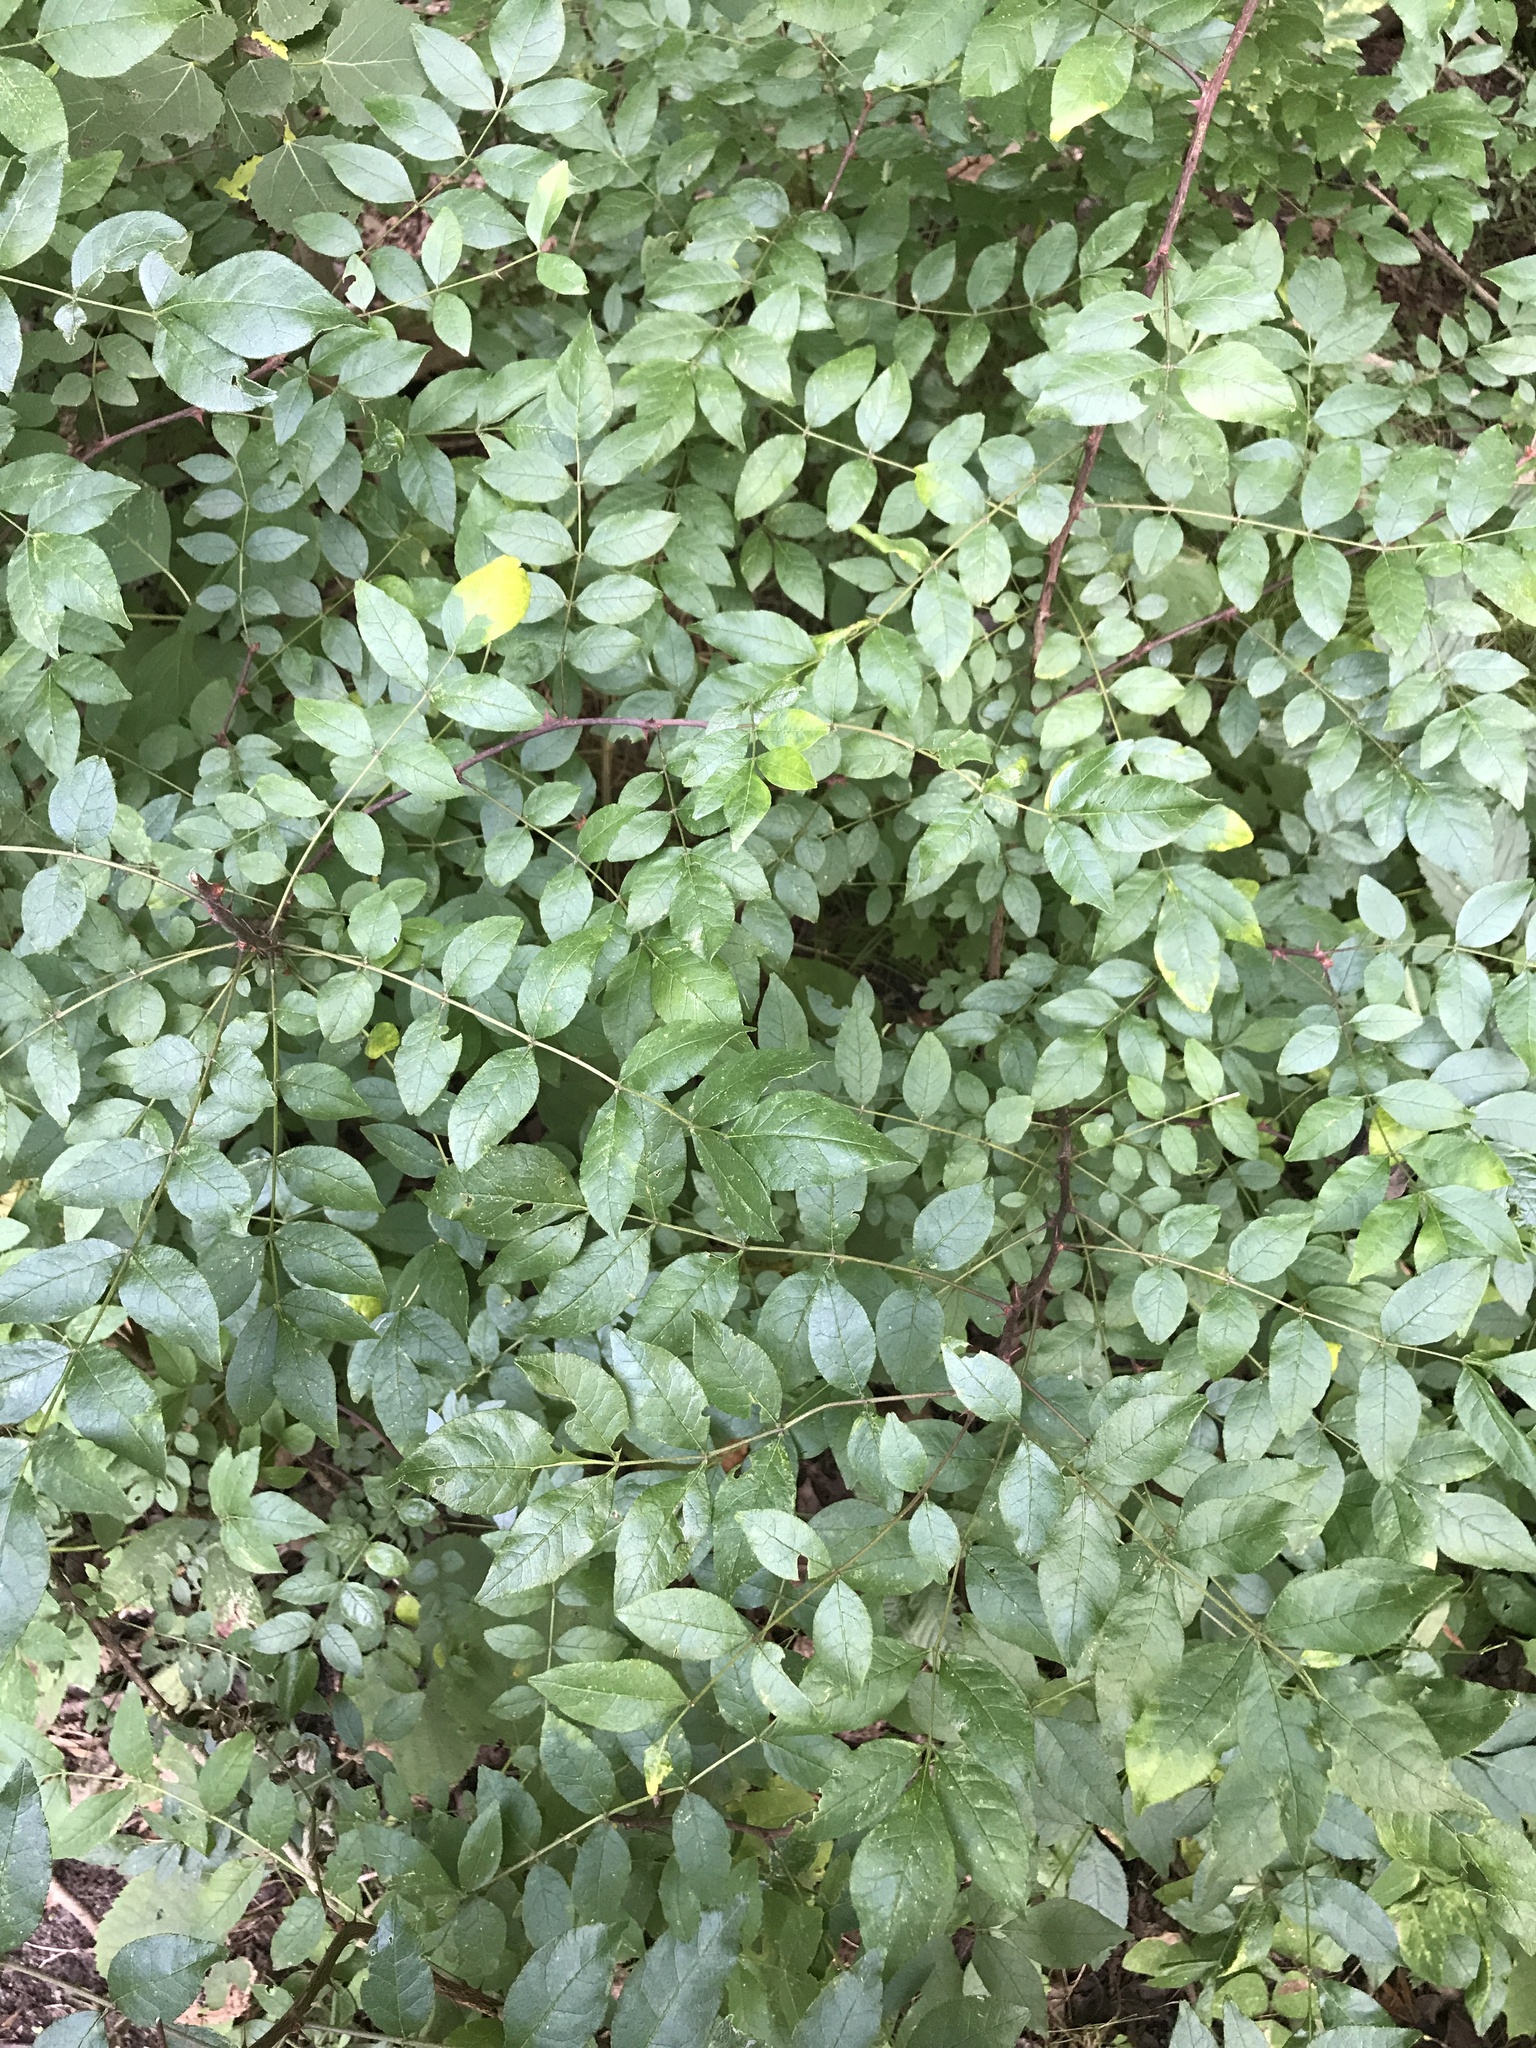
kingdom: Plantae
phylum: Tracheophyta
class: Magnoliopsida
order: Sapindales
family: Rutaceae
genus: Zanthoxylum
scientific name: Zanthoxylum americanum
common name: Northern prickly-ash
